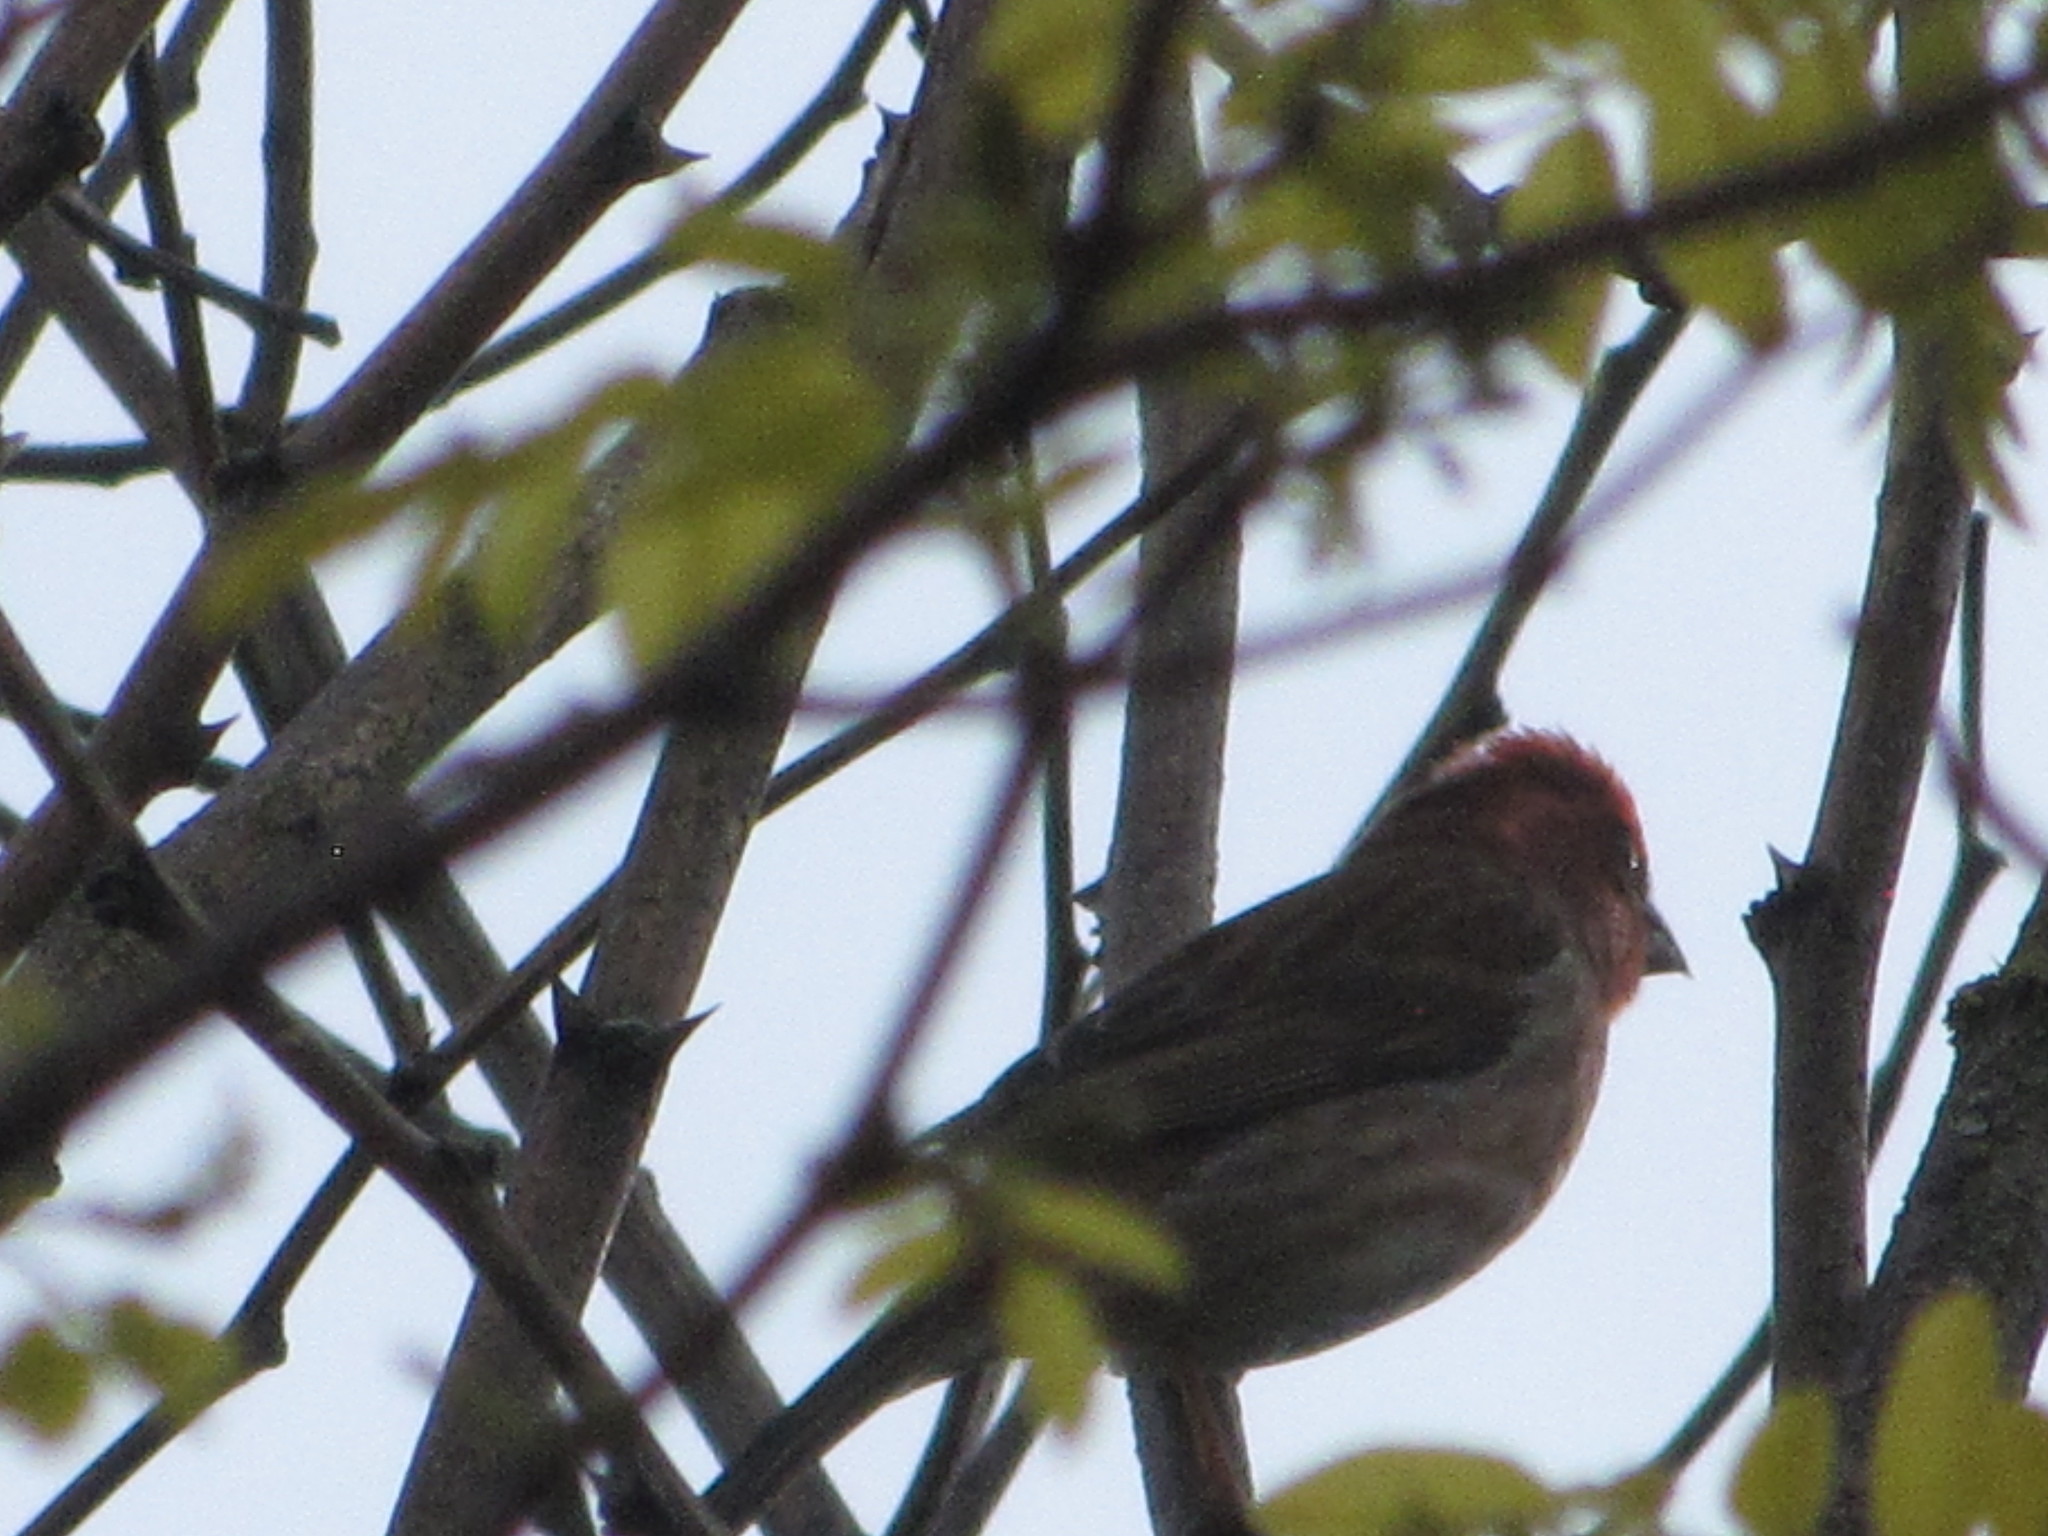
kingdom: Animalia
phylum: Chordata
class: Aves
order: Passeriformes
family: Fringillidae
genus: Haemorhous
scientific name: Haemorhous purpureus
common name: Purple finch
